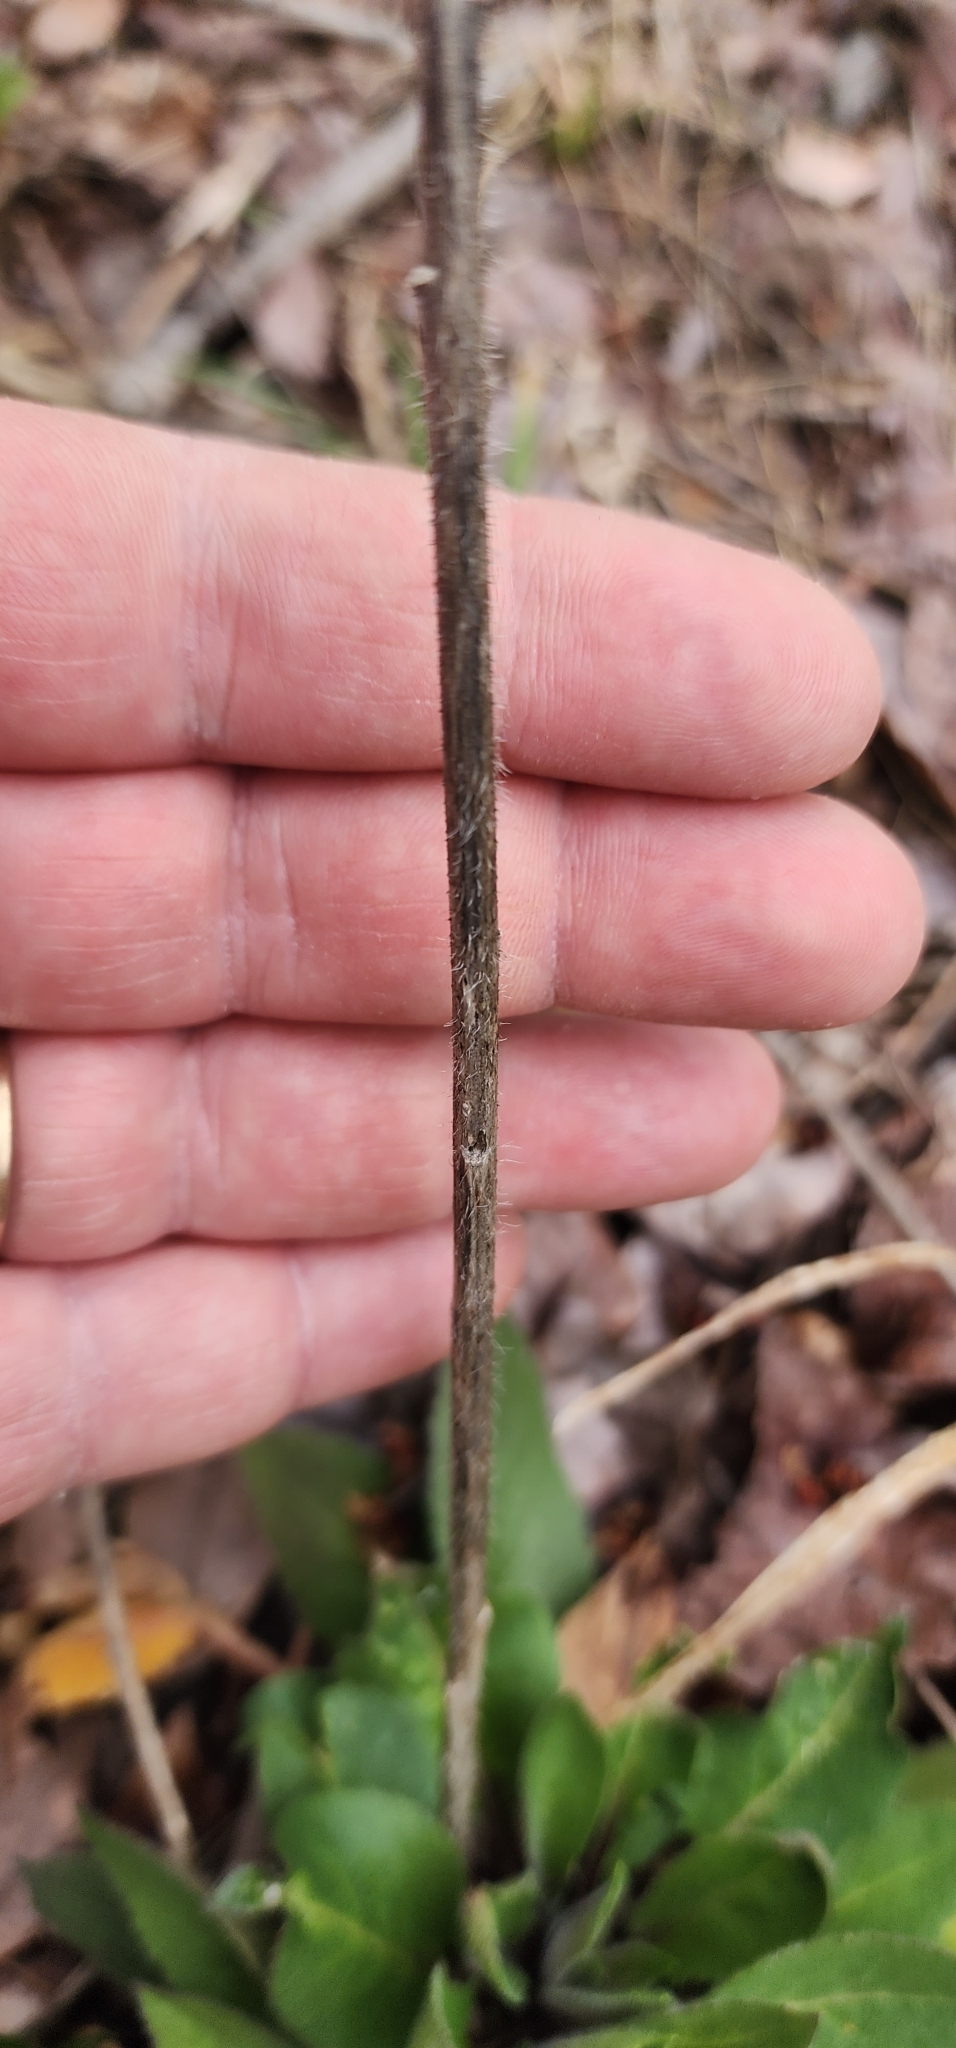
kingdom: Plantae
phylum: Tracheophyta
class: Magnoliopsida
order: Brassicales
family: Brassicaceae
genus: Hesperis
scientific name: Hesperis matronalis
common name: Dame's-violet
